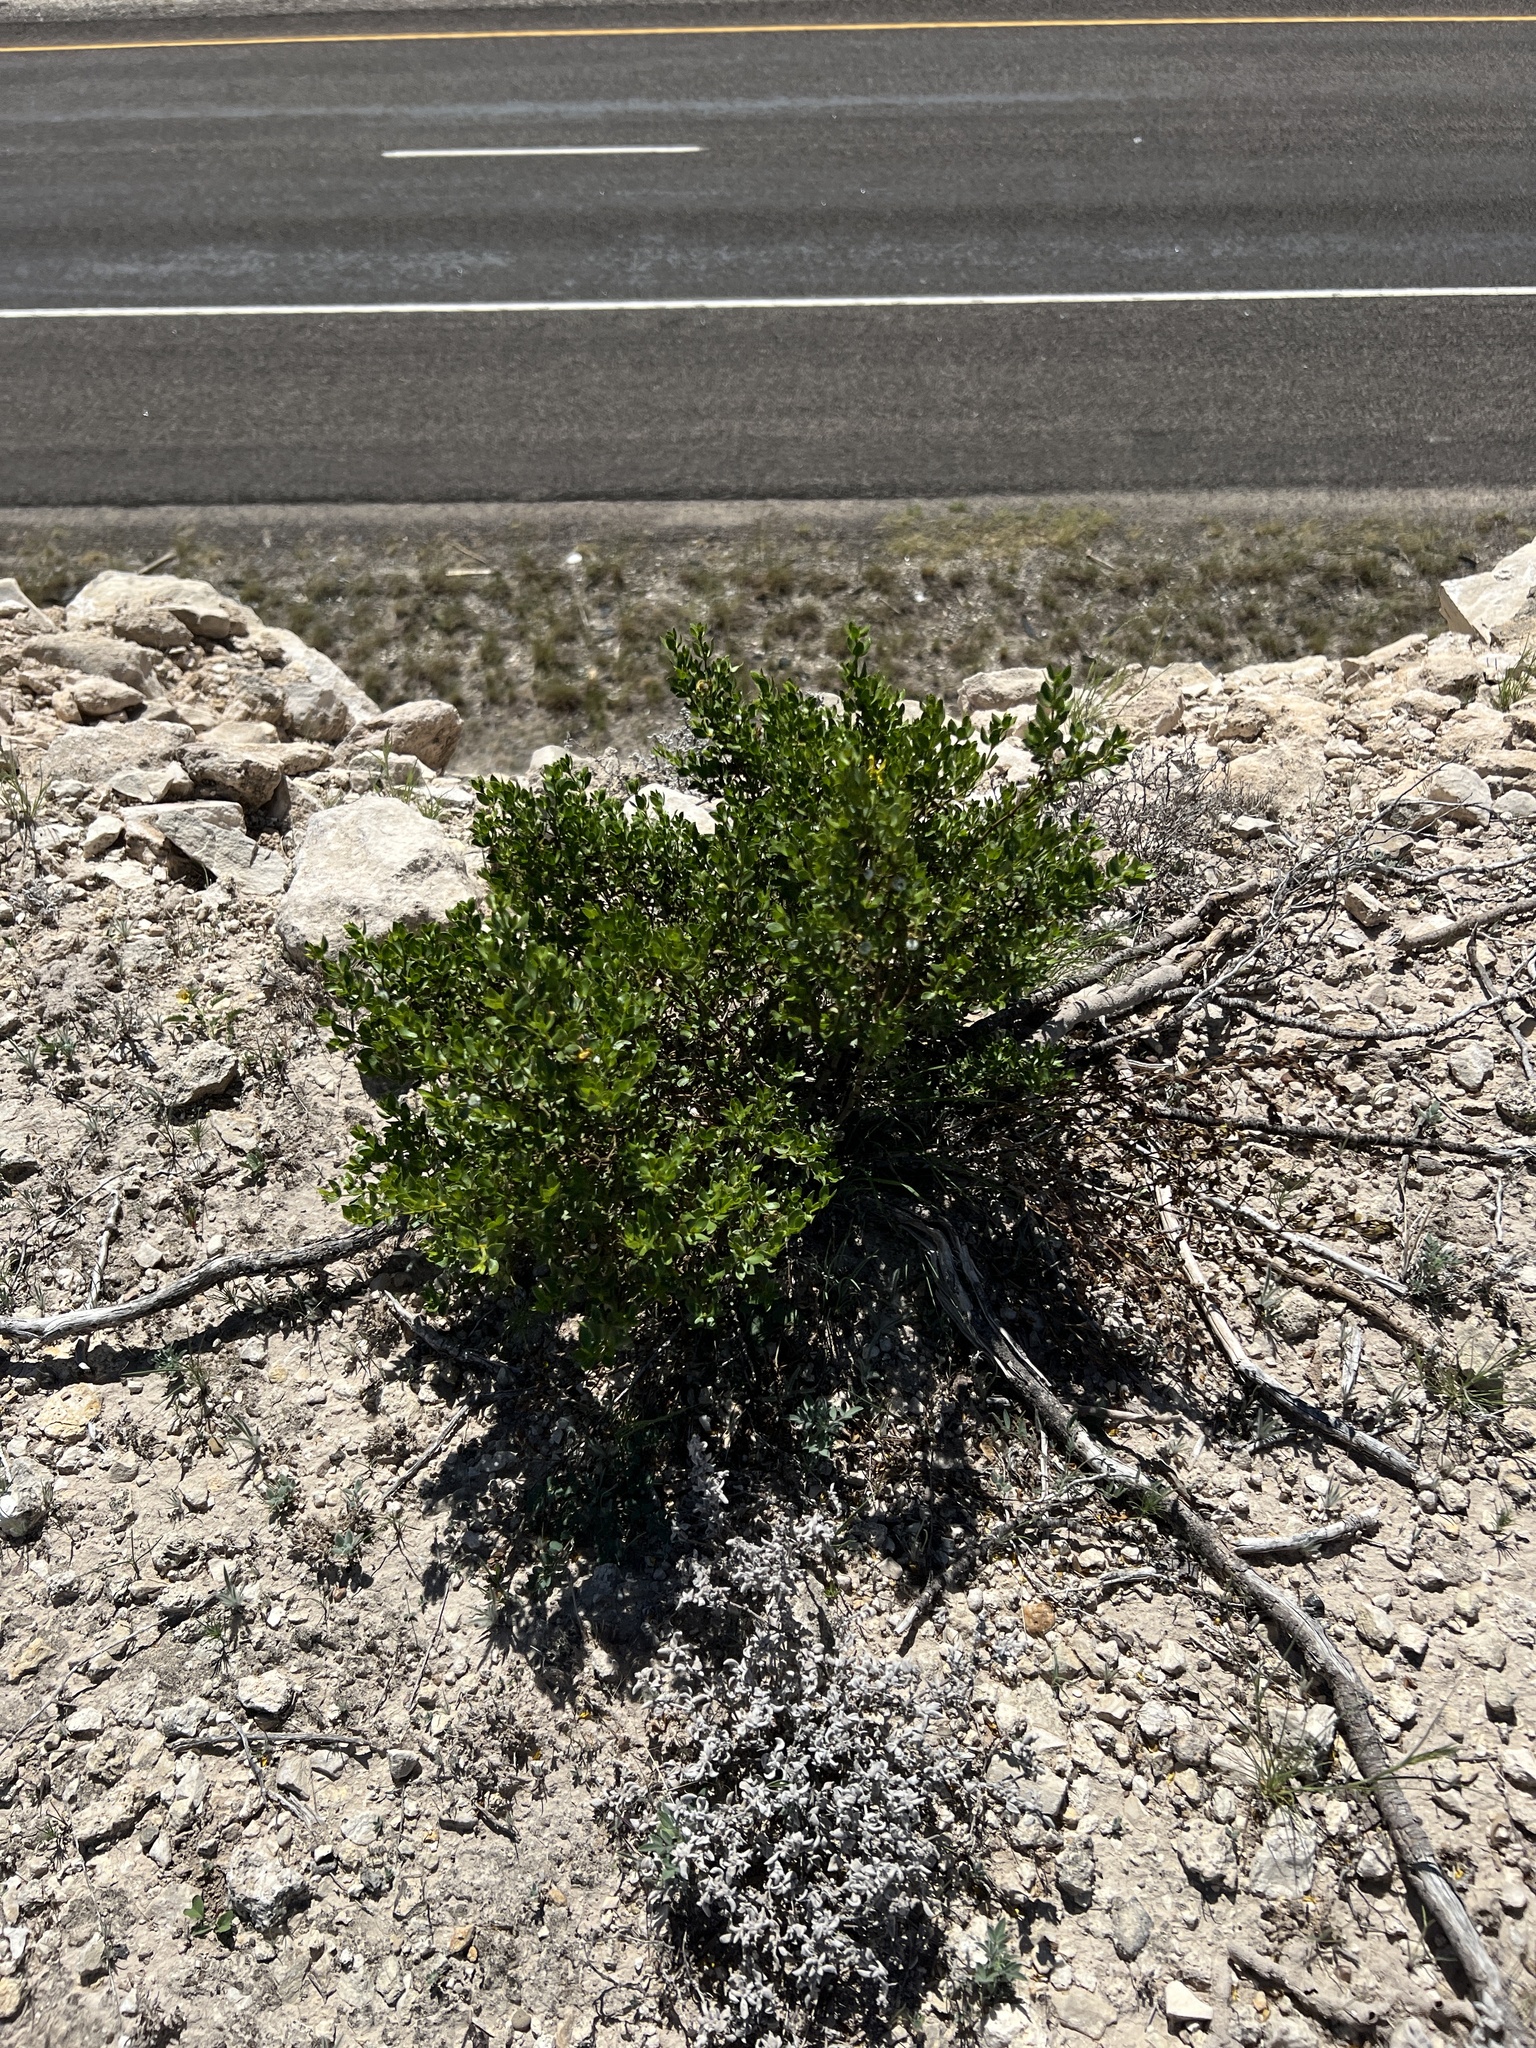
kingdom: Plantae
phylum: Tracheophyta
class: Magnoliopsida
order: Zygophyllales
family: Zygophyllaceae
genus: Larrea
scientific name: Larrea tridentata
